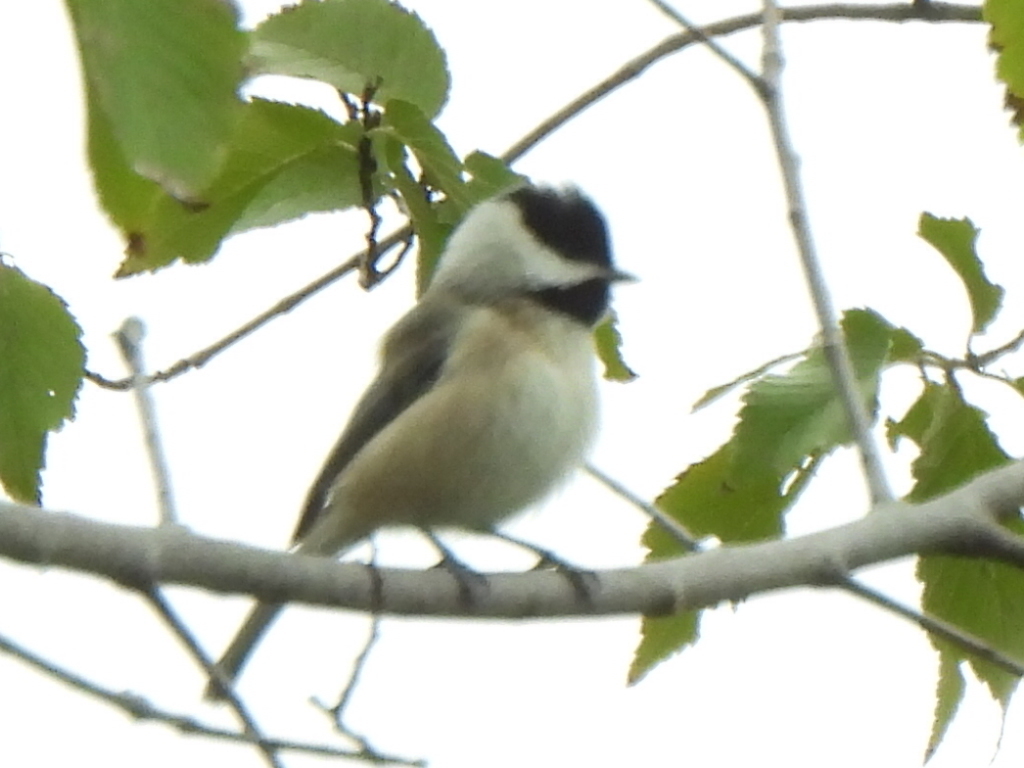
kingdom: Animalia
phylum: Chordata
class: Aves
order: Passeriformes
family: Paridae
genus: Poecile
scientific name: Poecile carolinensis
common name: Carolina chickadee
